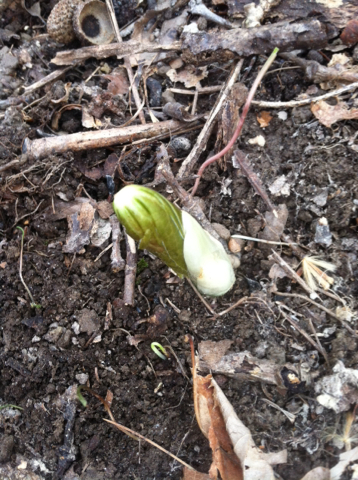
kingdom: Plantae
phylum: Tracheophyta
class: Magnoliopsida
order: Ranunculales
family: Berberidaceae
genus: Podophyllum
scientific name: Podophyllum peltatum
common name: Wild mandrake
